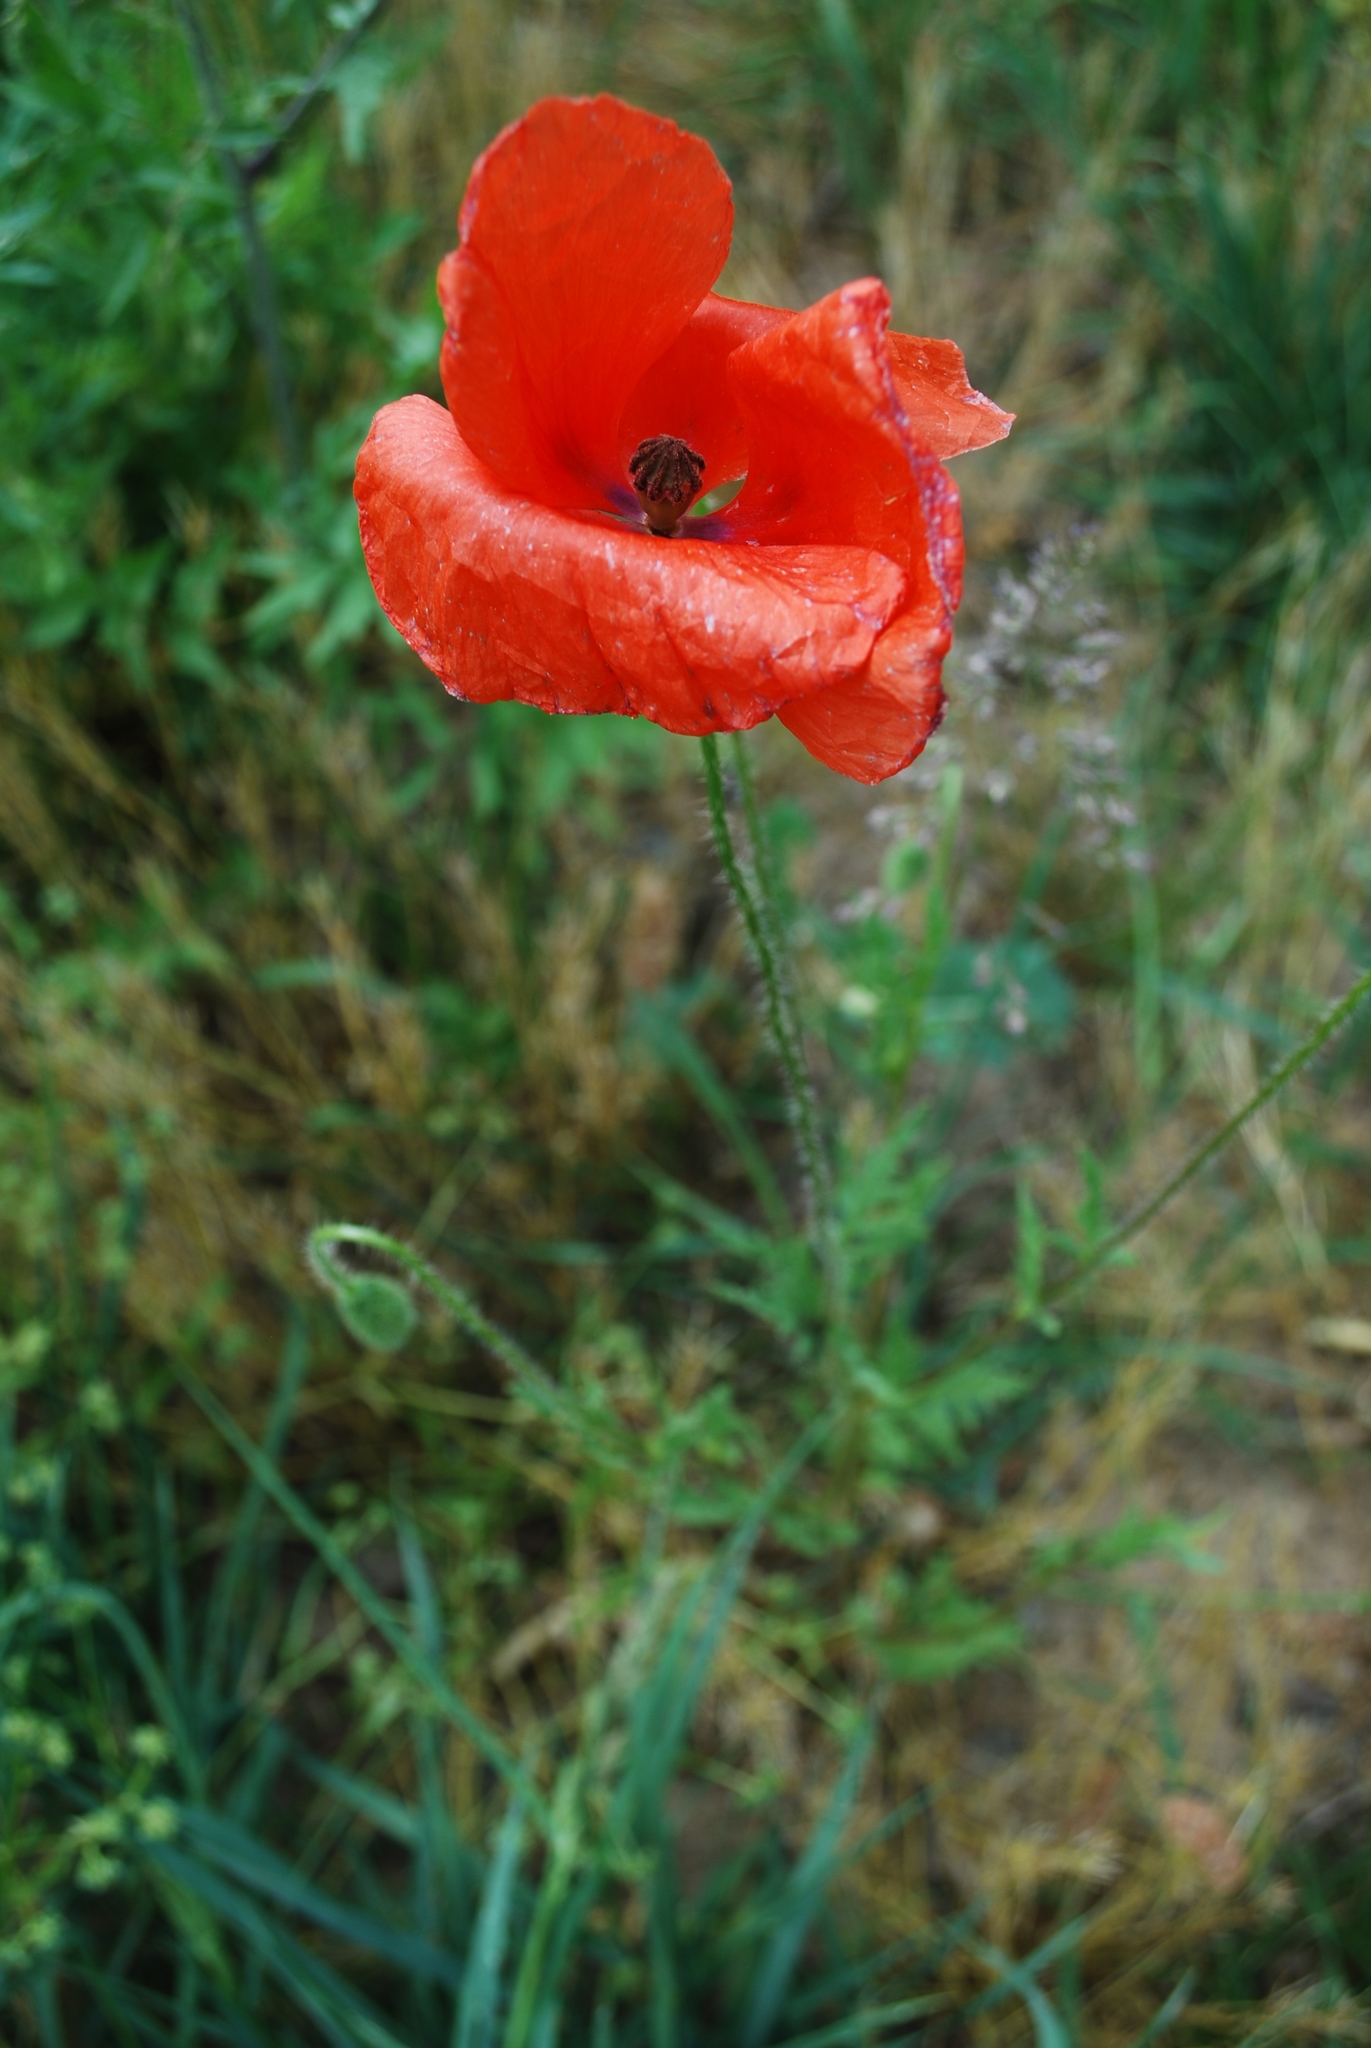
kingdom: Plantae
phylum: Tracheophyta
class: Magnoliopsida
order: Ranunculales
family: Papaveraceae
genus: Papaver
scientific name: Papaver rhoeas
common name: Corn poppy
